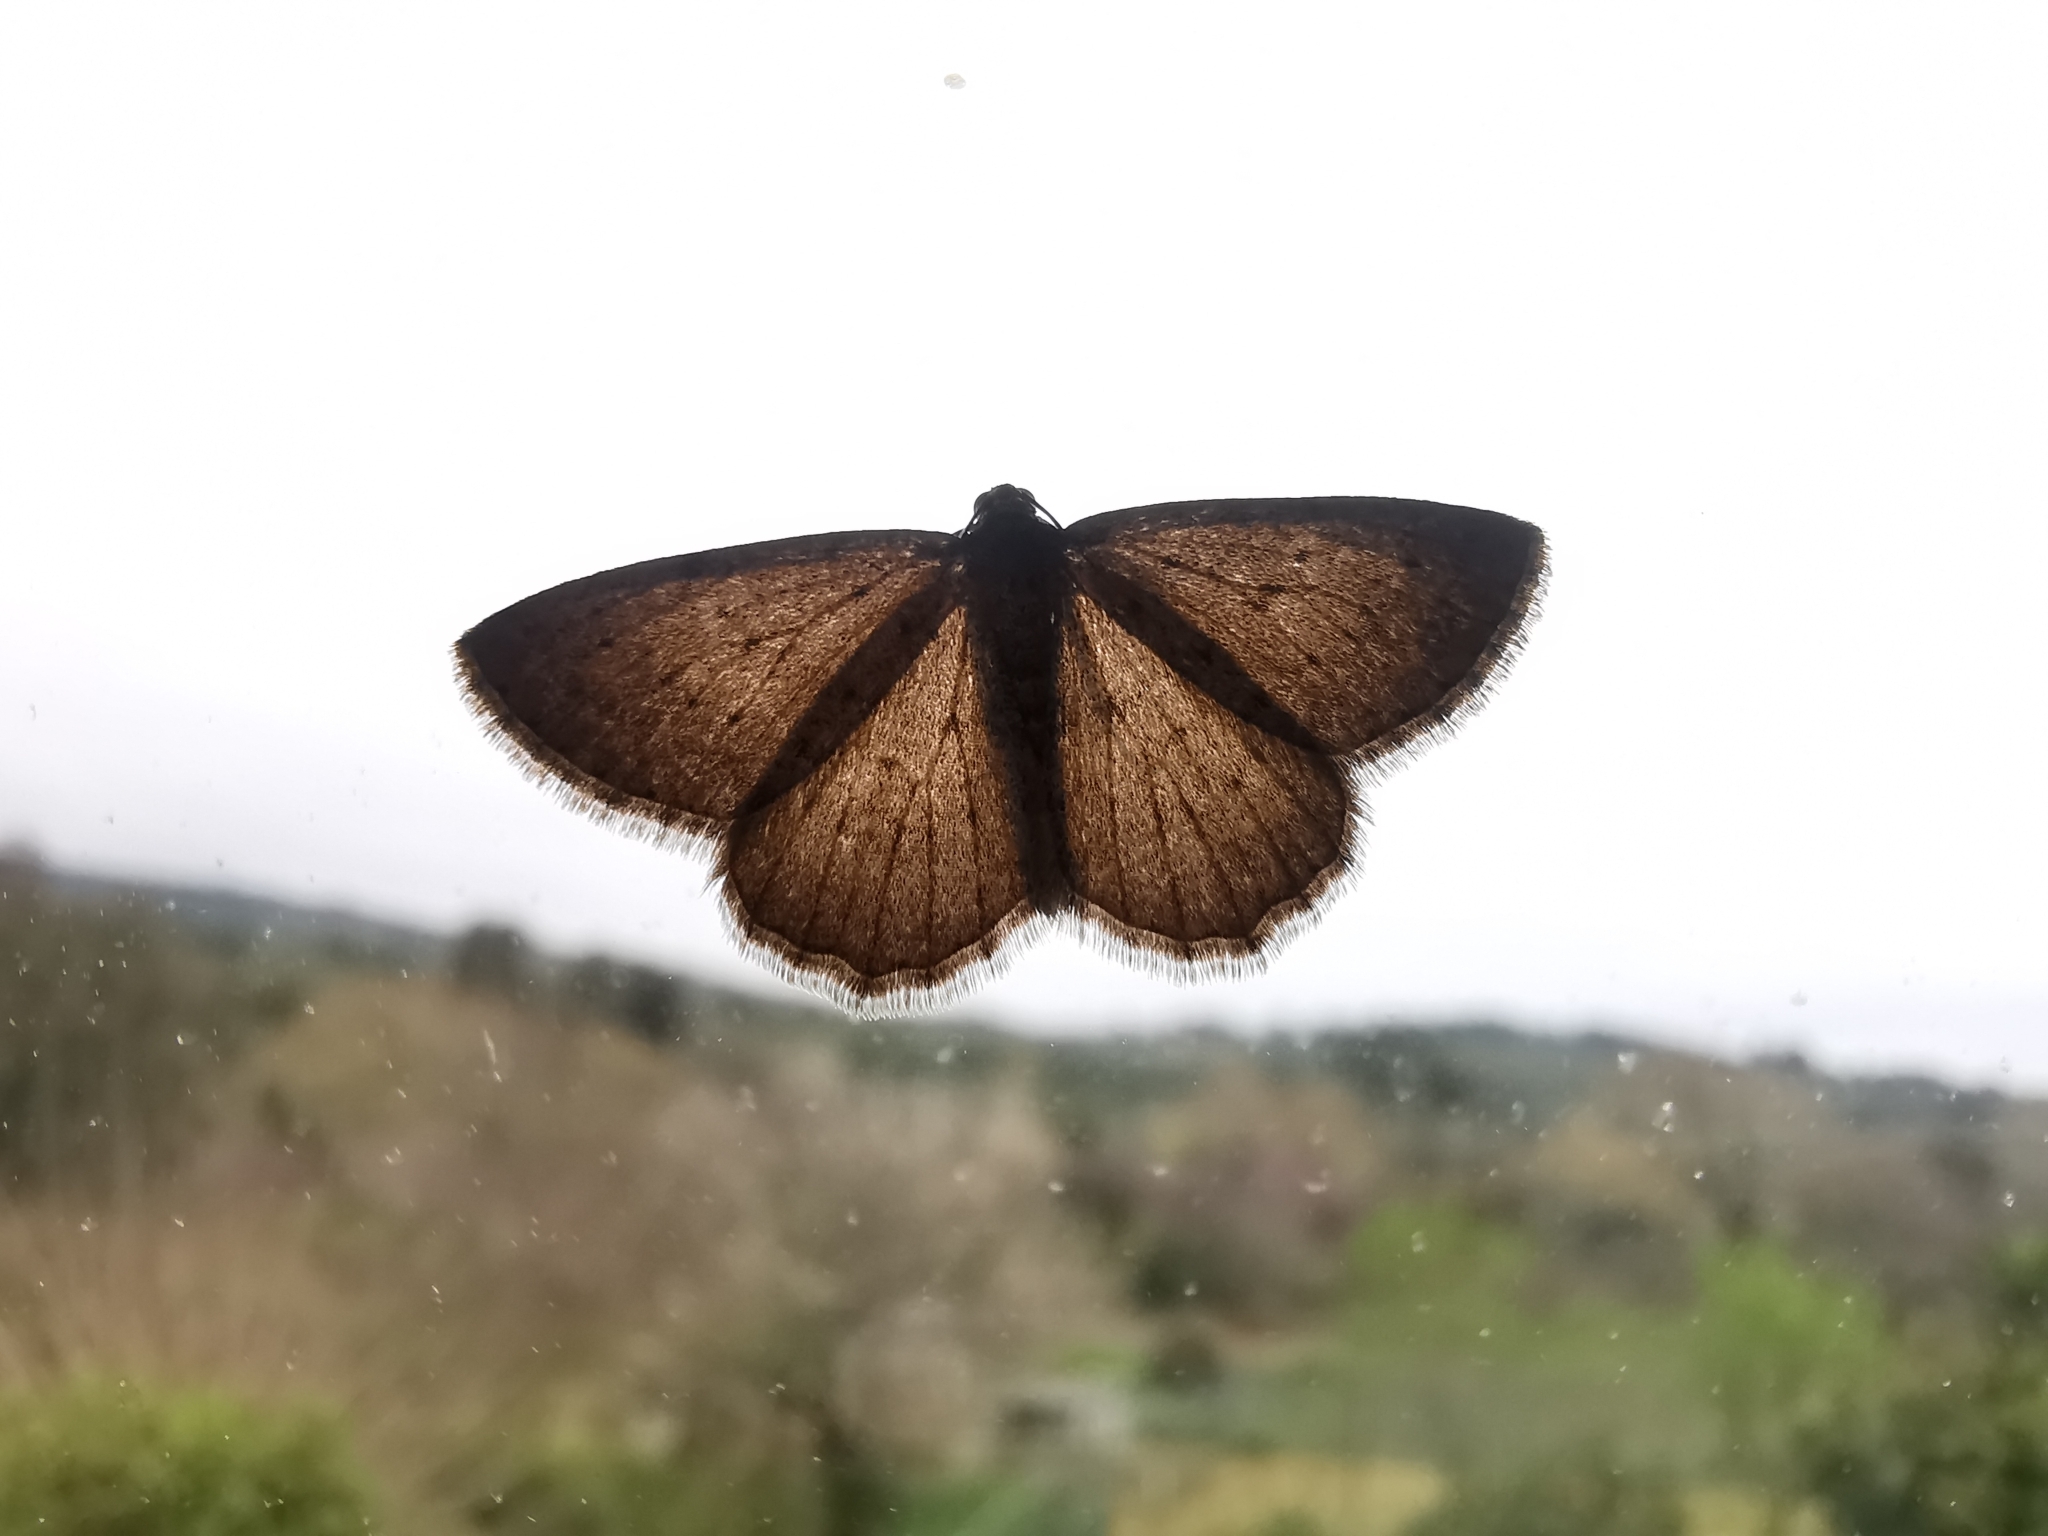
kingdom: Animalia
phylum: Arthropoda
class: Insecta
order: Lepidoptera
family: Geometridae
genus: Rhoptria
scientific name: Rhoptria dolosaria
